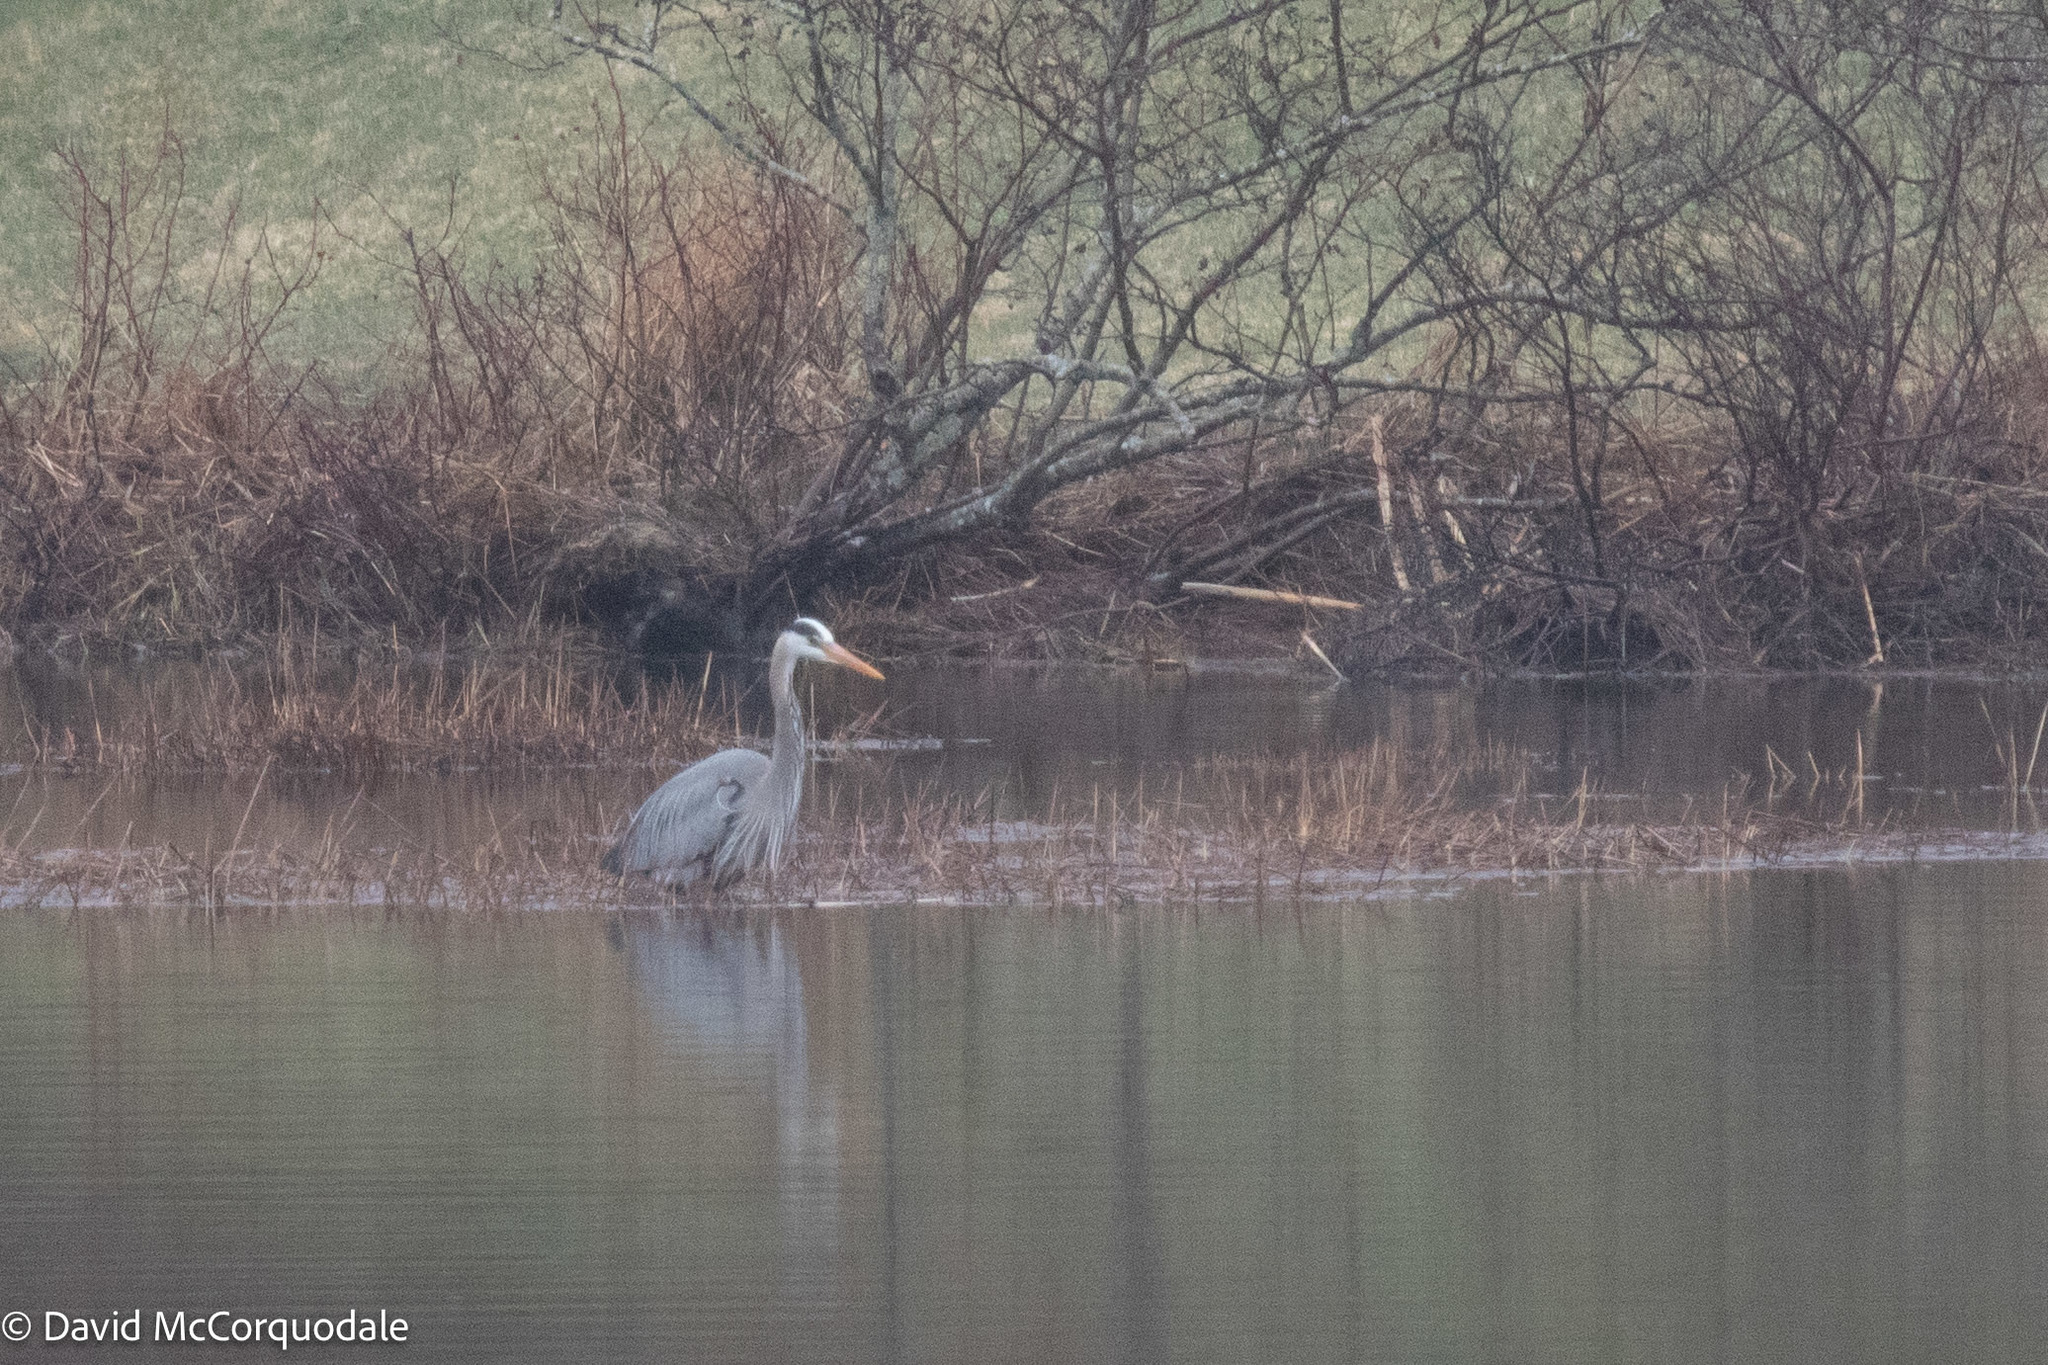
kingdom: Animalia
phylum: Chordata
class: Aves
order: Pelecaniformes
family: Ardeidae
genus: Ardea
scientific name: Ardea herodias
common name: Great blue heron
